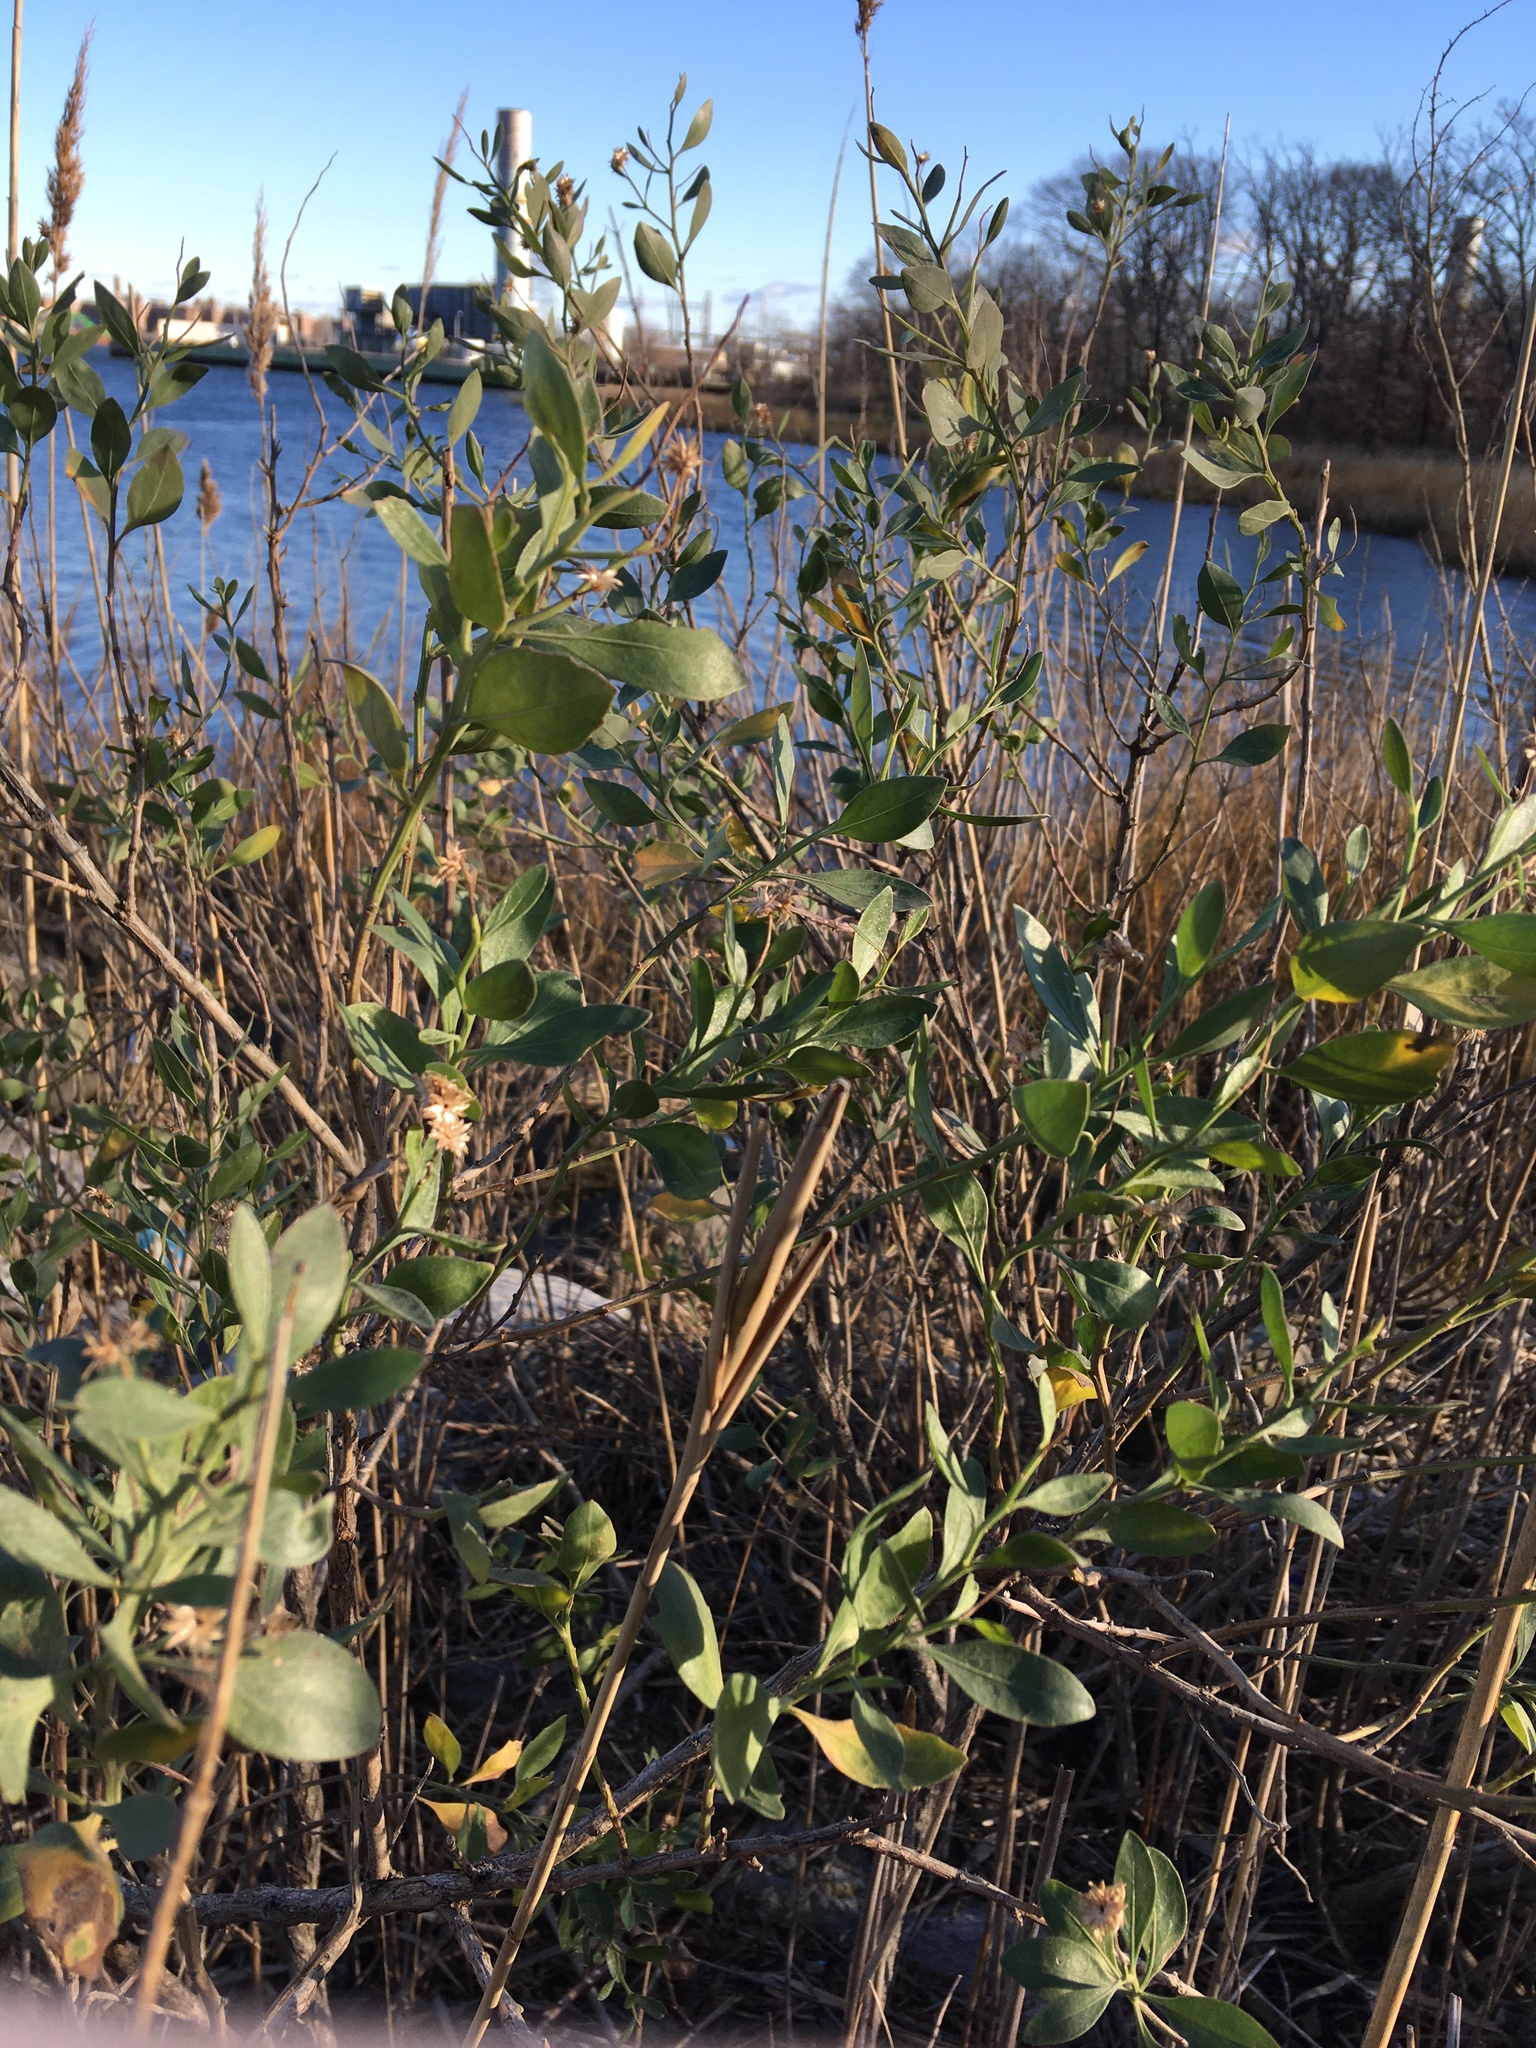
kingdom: Plantae
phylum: Tracheophyta
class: Magnoliopsida
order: Asterales
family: Asteraceae
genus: Baccharis
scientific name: Baccharis halimifolia
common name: Eastern baccharis
